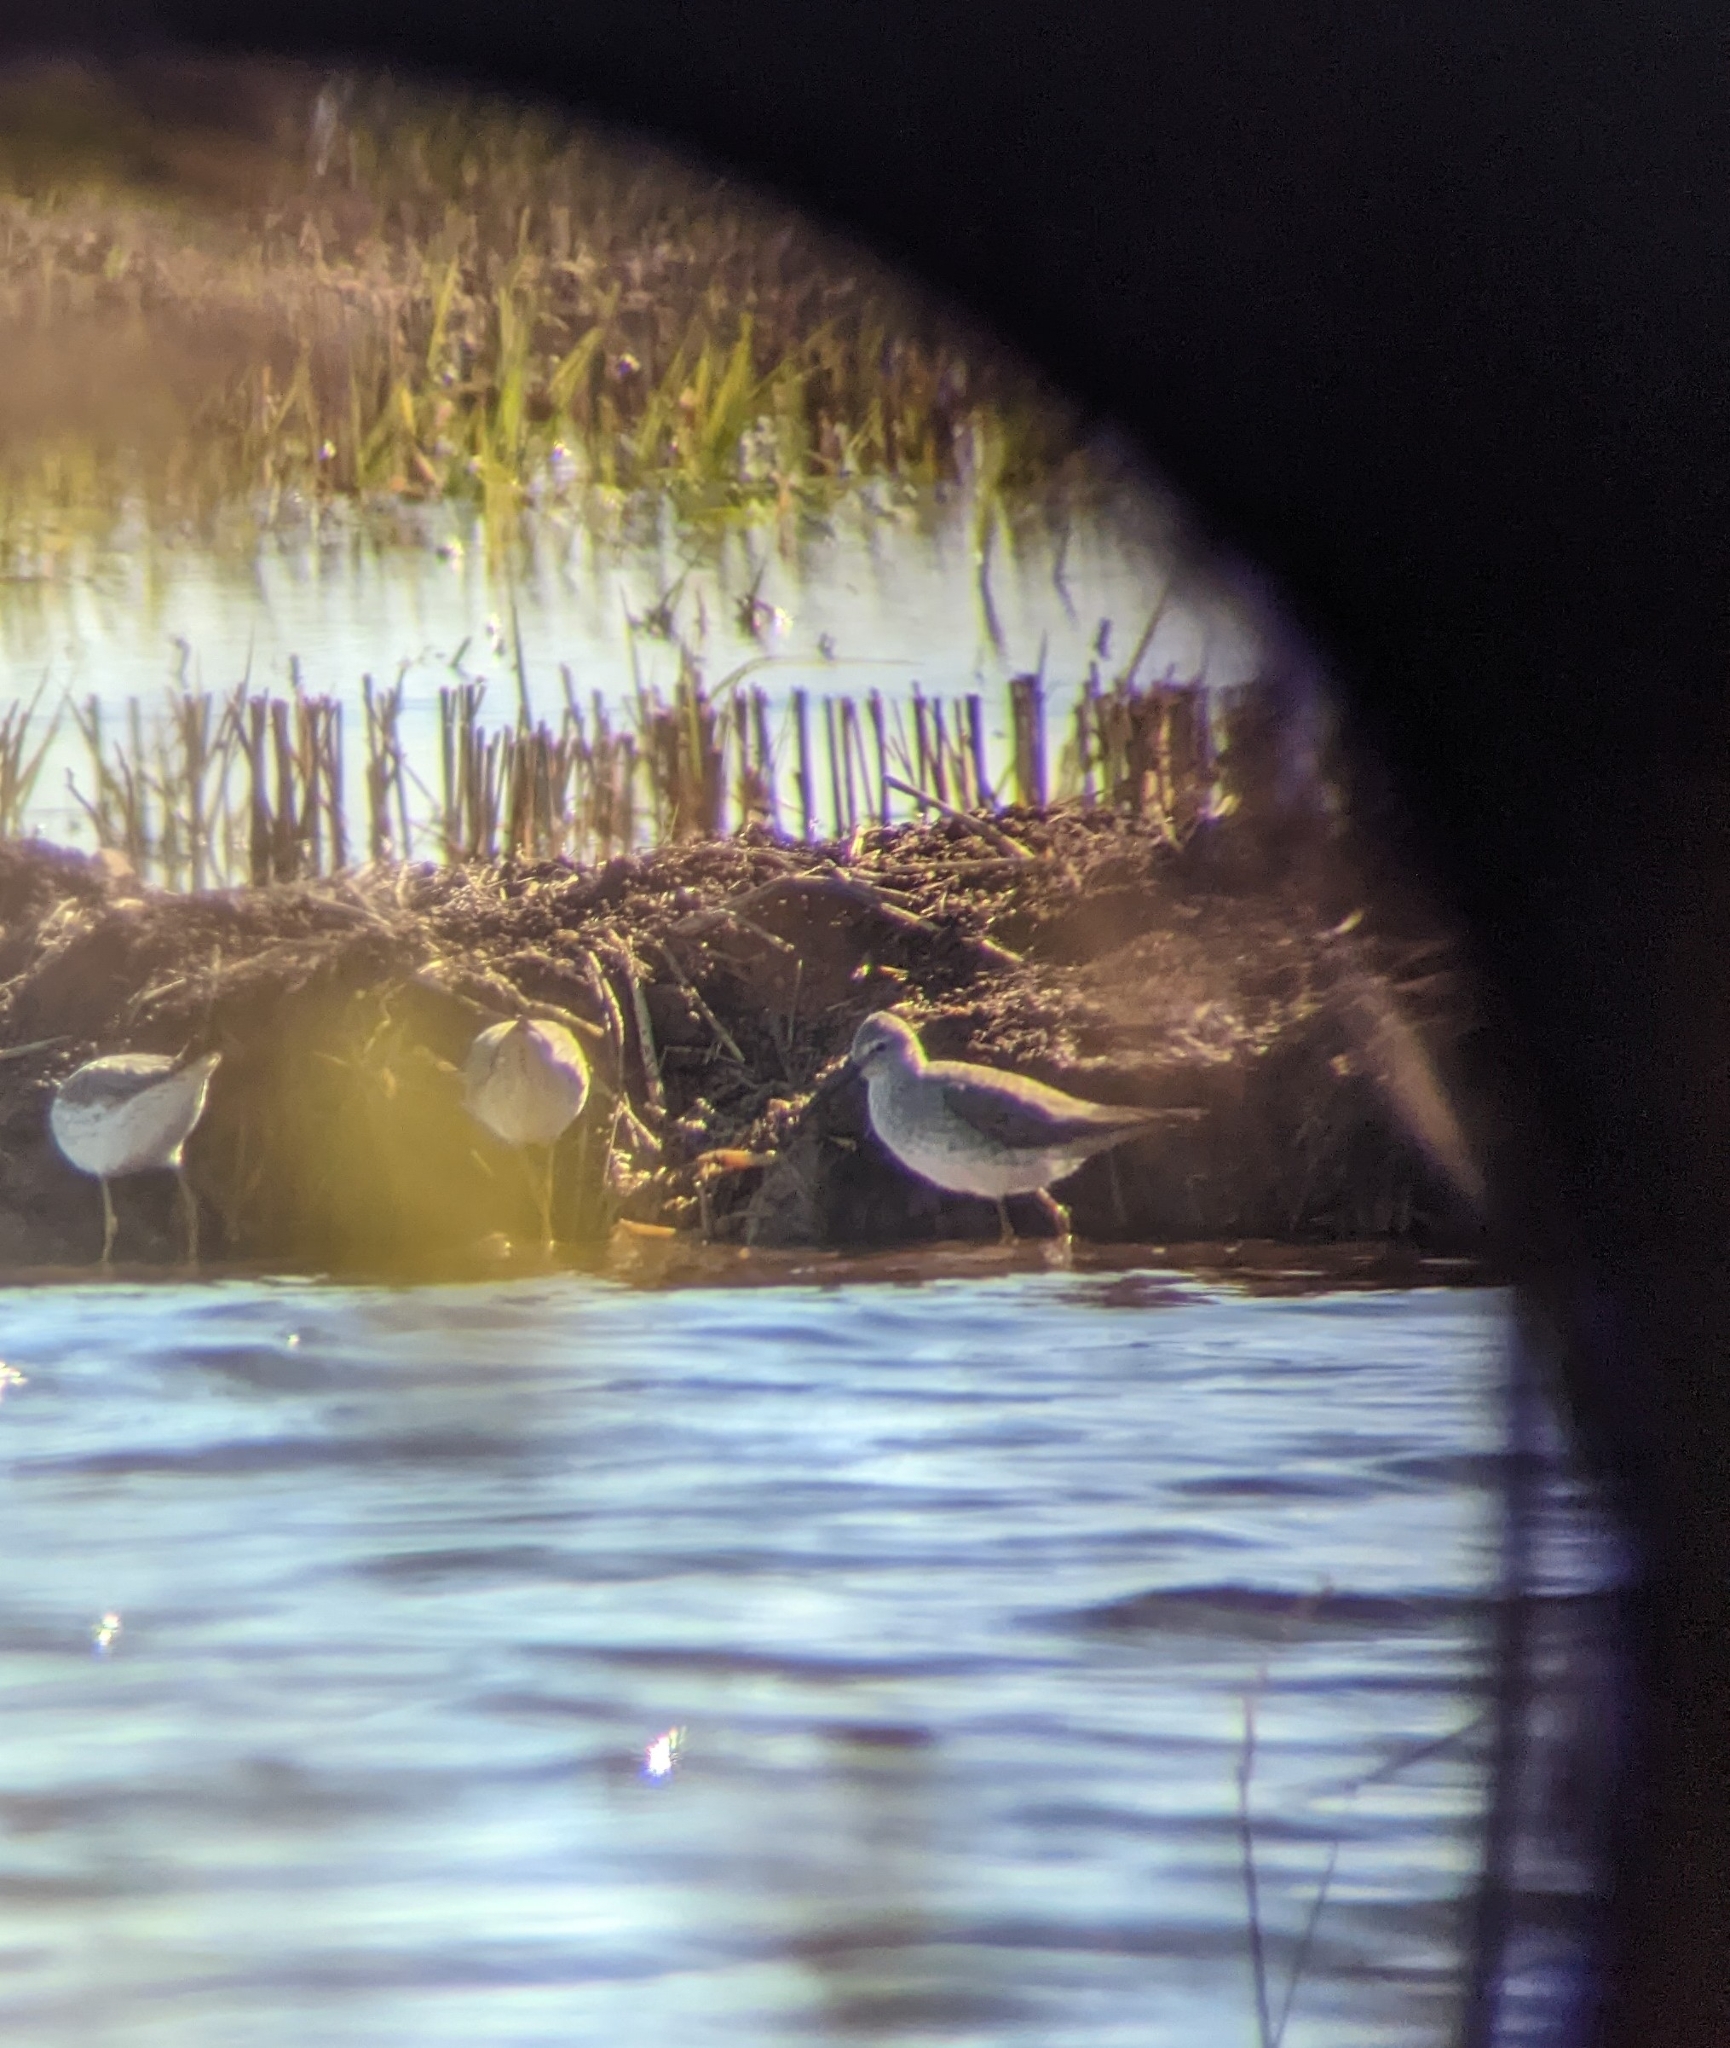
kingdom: Animalia
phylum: Chordata
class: Aves
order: Charadriiformes
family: Scolopacidae
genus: Calidris
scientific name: Calidris himantopus
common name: Stilt sandpiper
